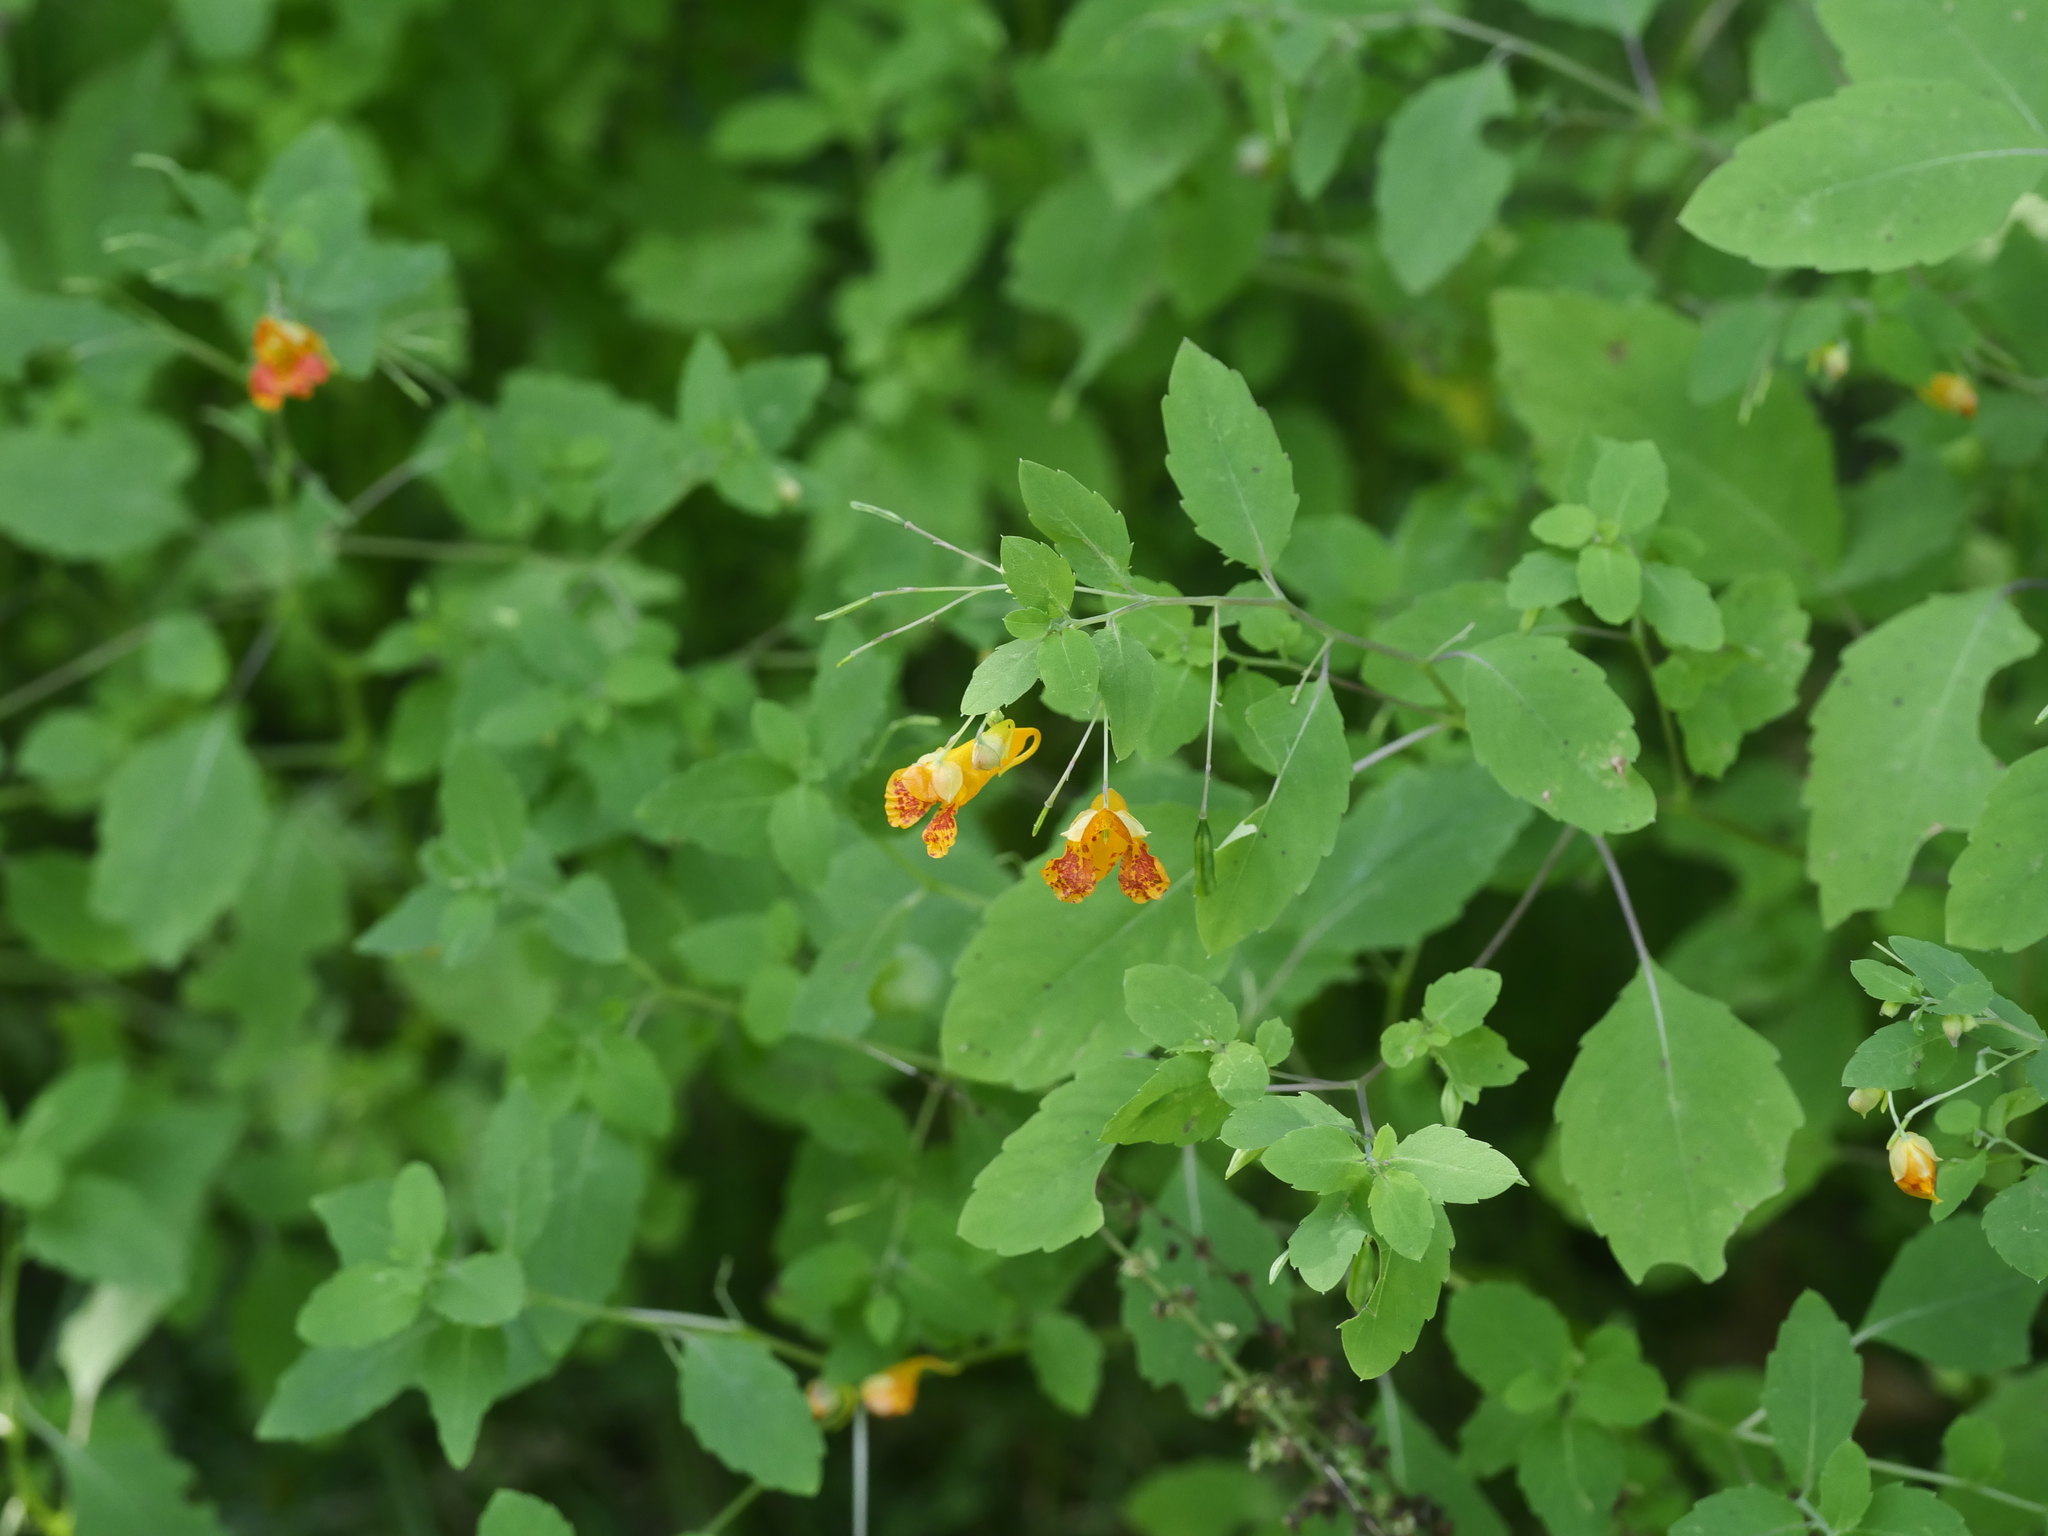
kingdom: Plantae
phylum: Tracheophyta
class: Magnoliopsida
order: Ericales
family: Balsaminaceae
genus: Impatiens
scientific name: Impatiens capensis
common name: Orange balsam
